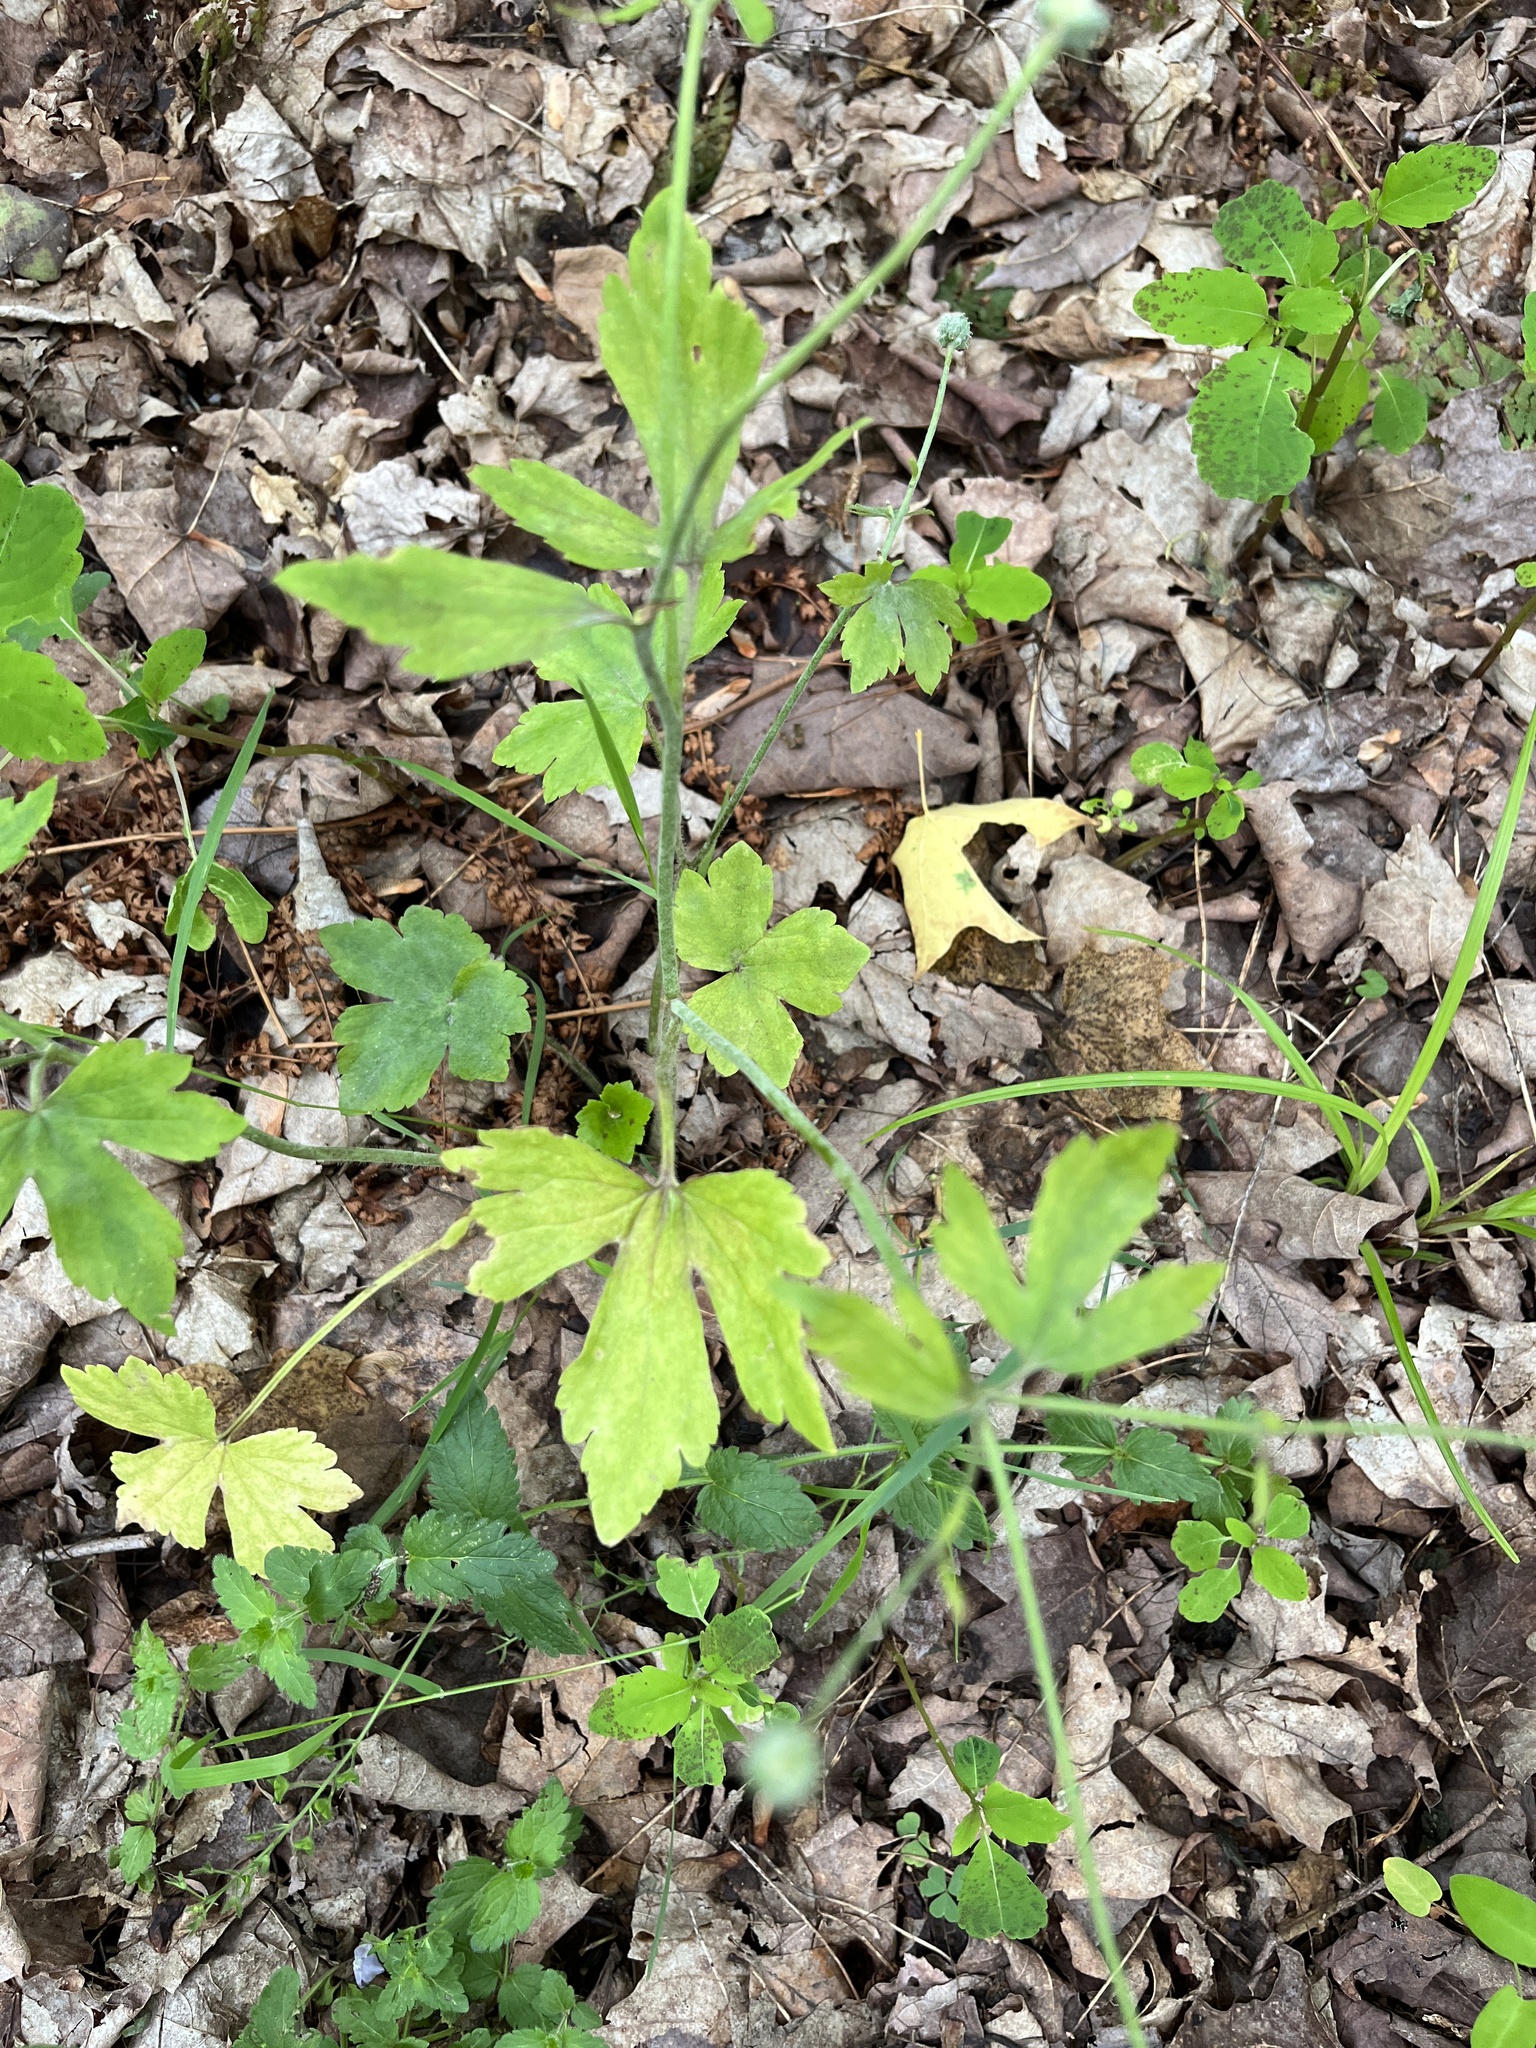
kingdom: Plantae
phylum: Tracheophyta
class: Magnoliopsida
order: Ranunculales
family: Ranunculaceae
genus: Ranunculus
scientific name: Ranunculus recurvatus
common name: Blisterwort
